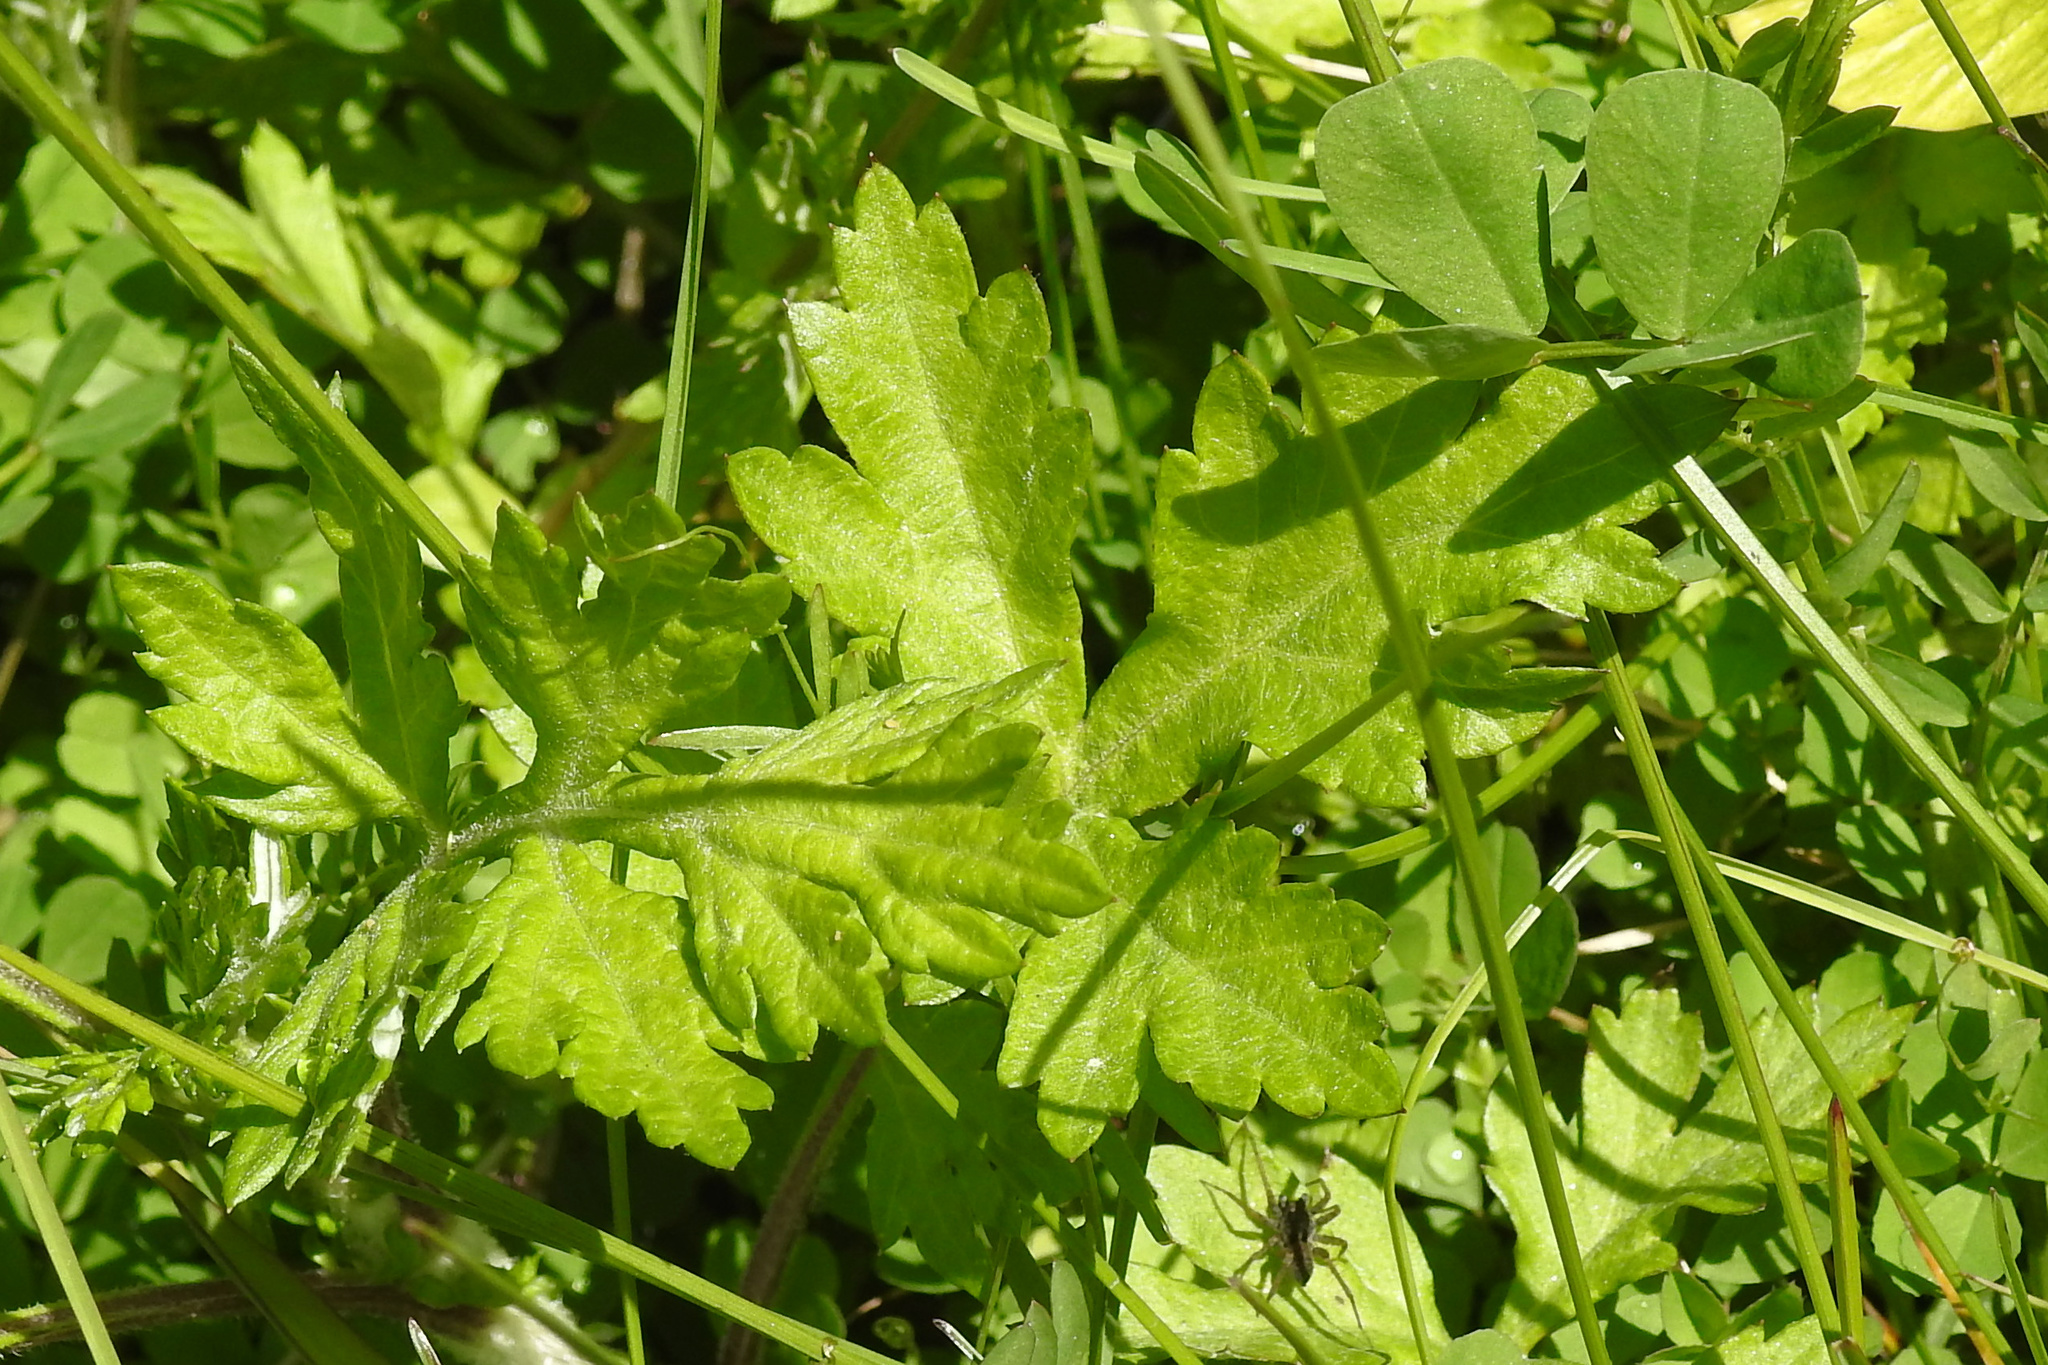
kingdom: Plantae
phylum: Tracheophyta
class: Magnoliopsida
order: Asterales
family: Asteraceae
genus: Artemisia
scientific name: Artemisia vulgaris
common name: Mugwort
